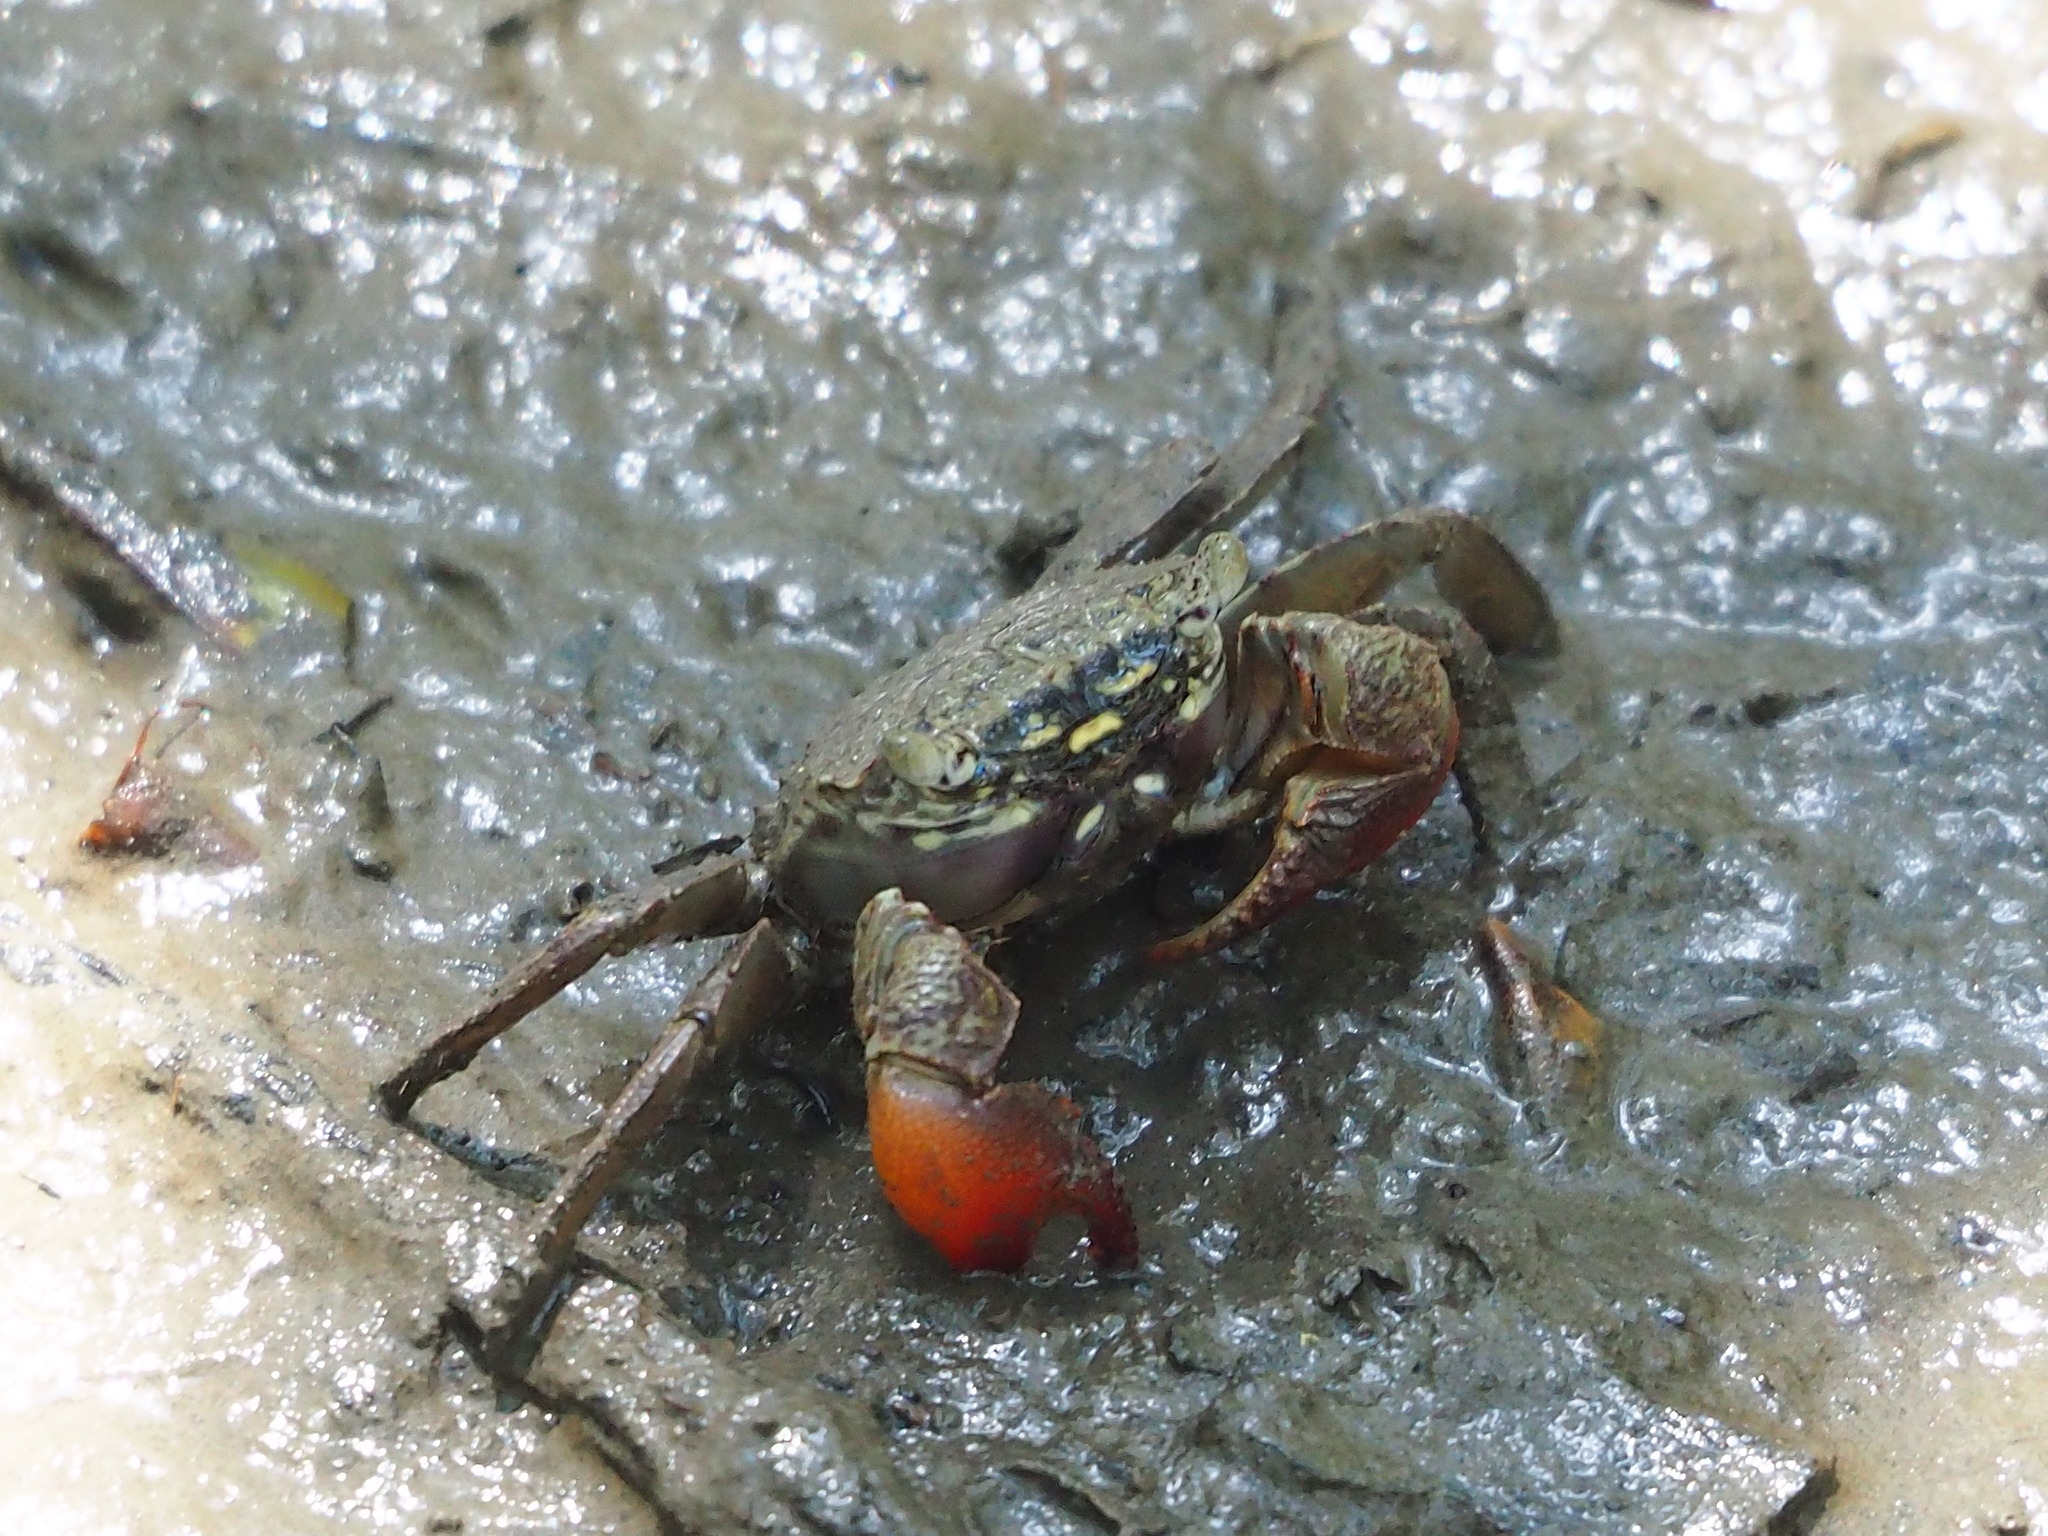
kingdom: Animalia
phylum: Arthropoda
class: Malacostraca
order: Decapoda
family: Sesarmidae
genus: Parasesarma
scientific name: Parasesarma affine
